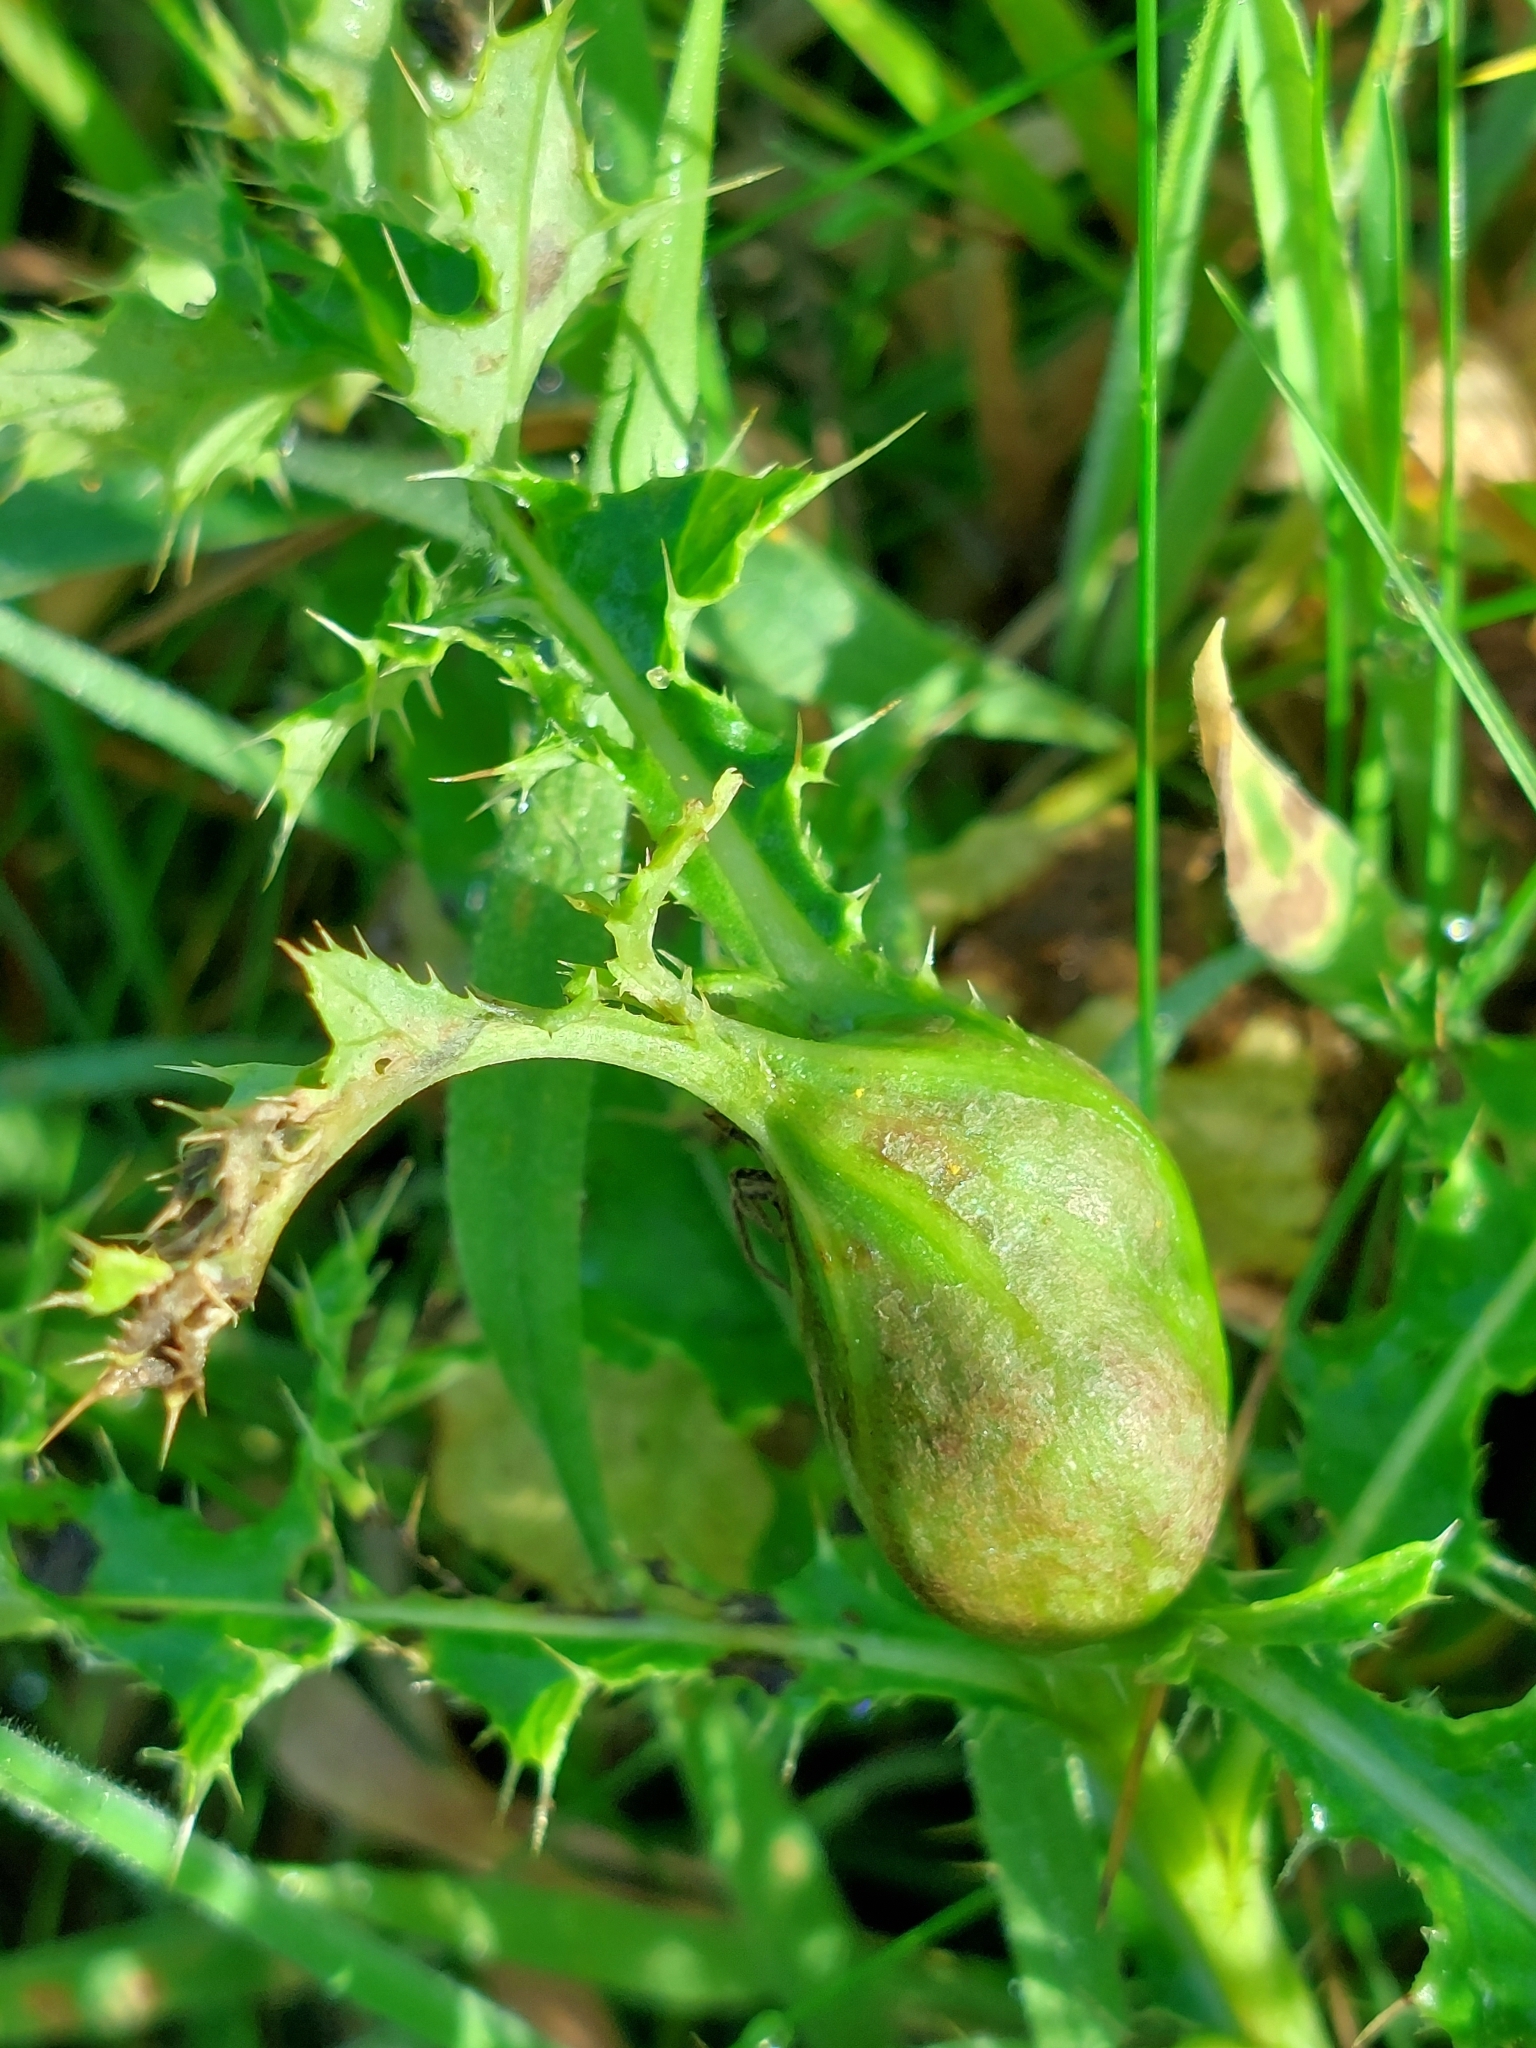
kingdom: Animalia
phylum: Arthropoda
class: Insecta
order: Diptera
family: Tephritidae
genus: Urophora
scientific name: Urophora cardui
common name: Fruit fly
